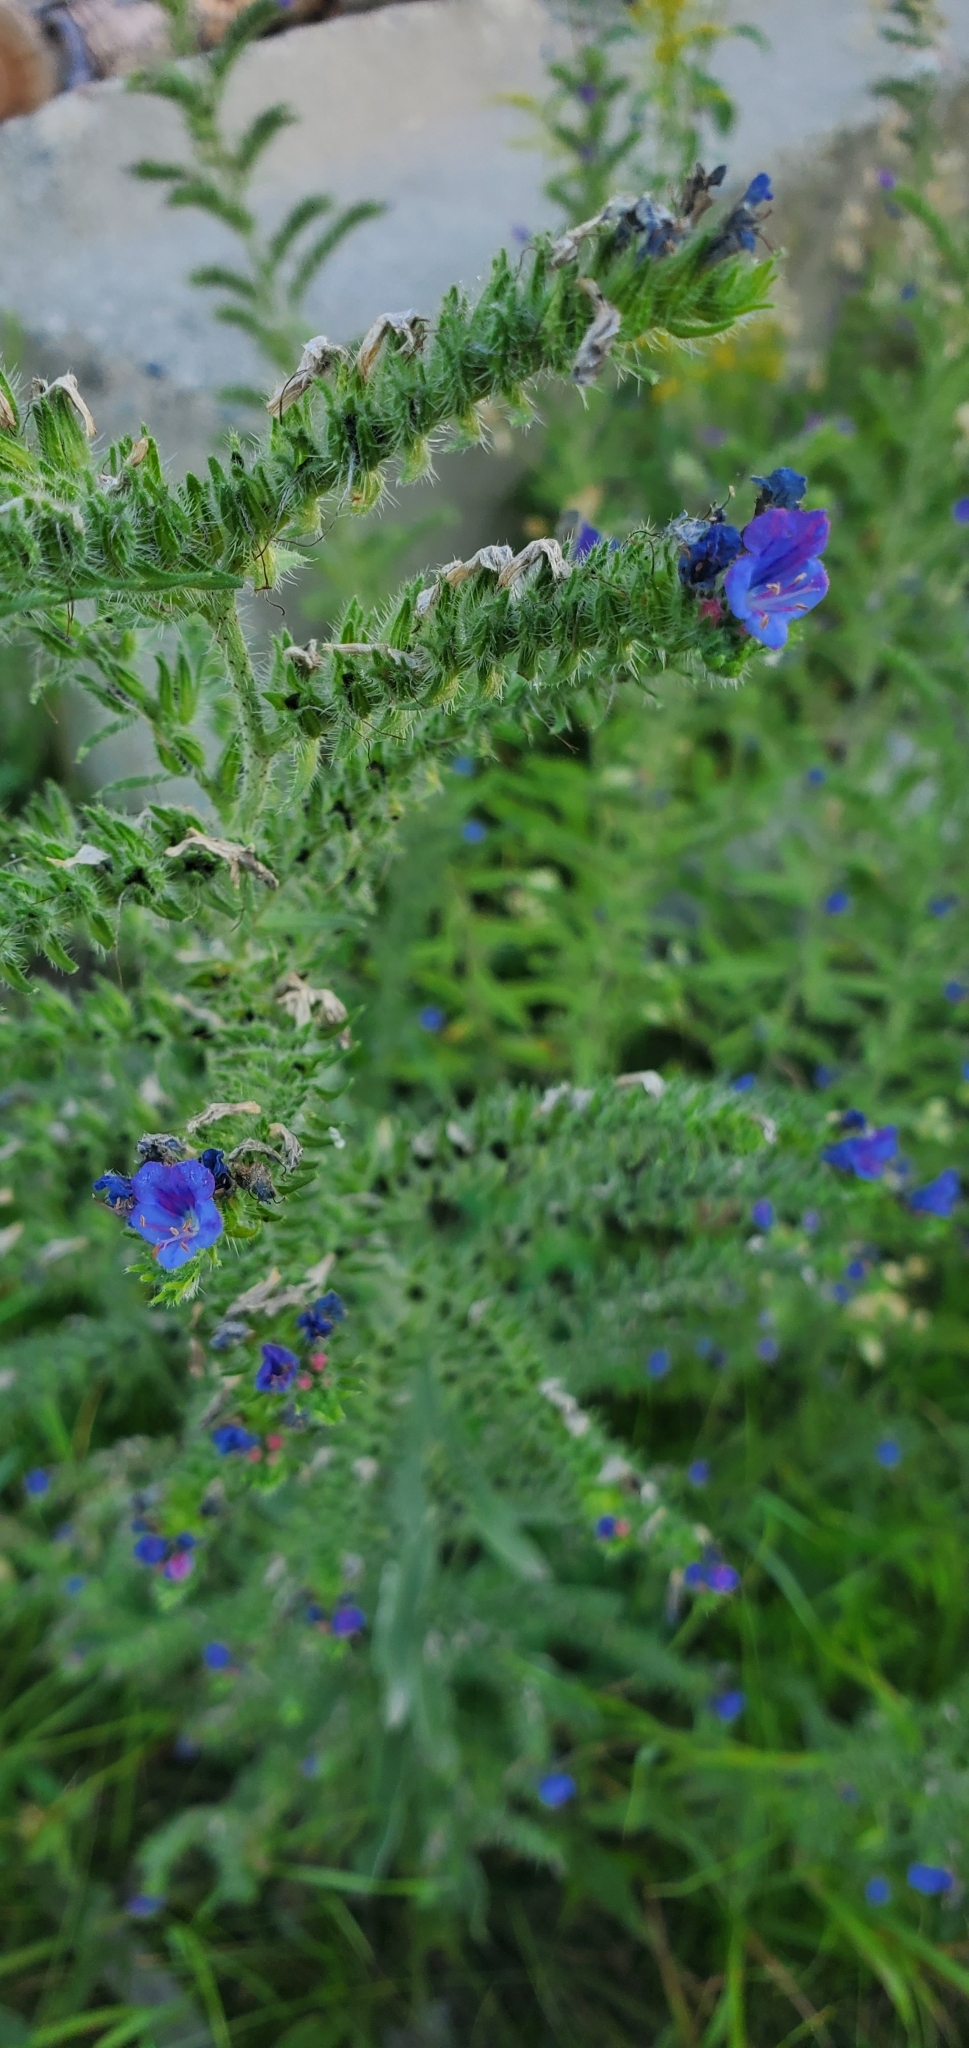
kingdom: Plantae
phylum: Tracheophyta
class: Magnoliopsida
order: Boraginales
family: Boraginaceae
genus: Echium
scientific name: Echium vulgare
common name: Common viper's bugloss
